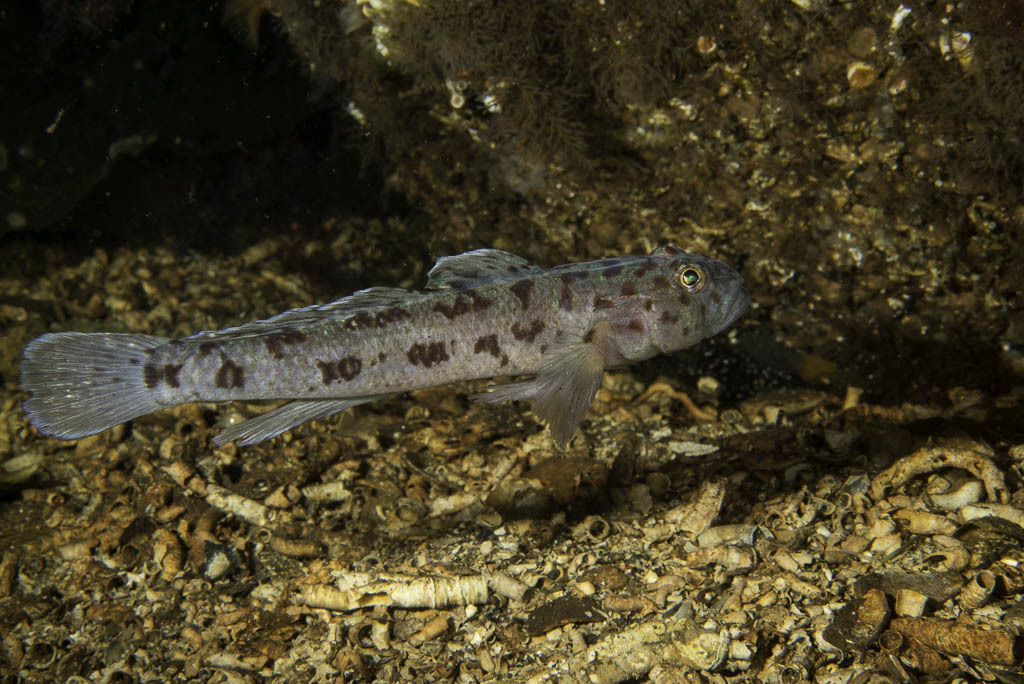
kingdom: Animalia
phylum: Chordata
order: Perciformes
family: Gobiidae
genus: Thorogobius
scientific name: Thorogobius ephippiatus
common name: Leopard-spotted goby
